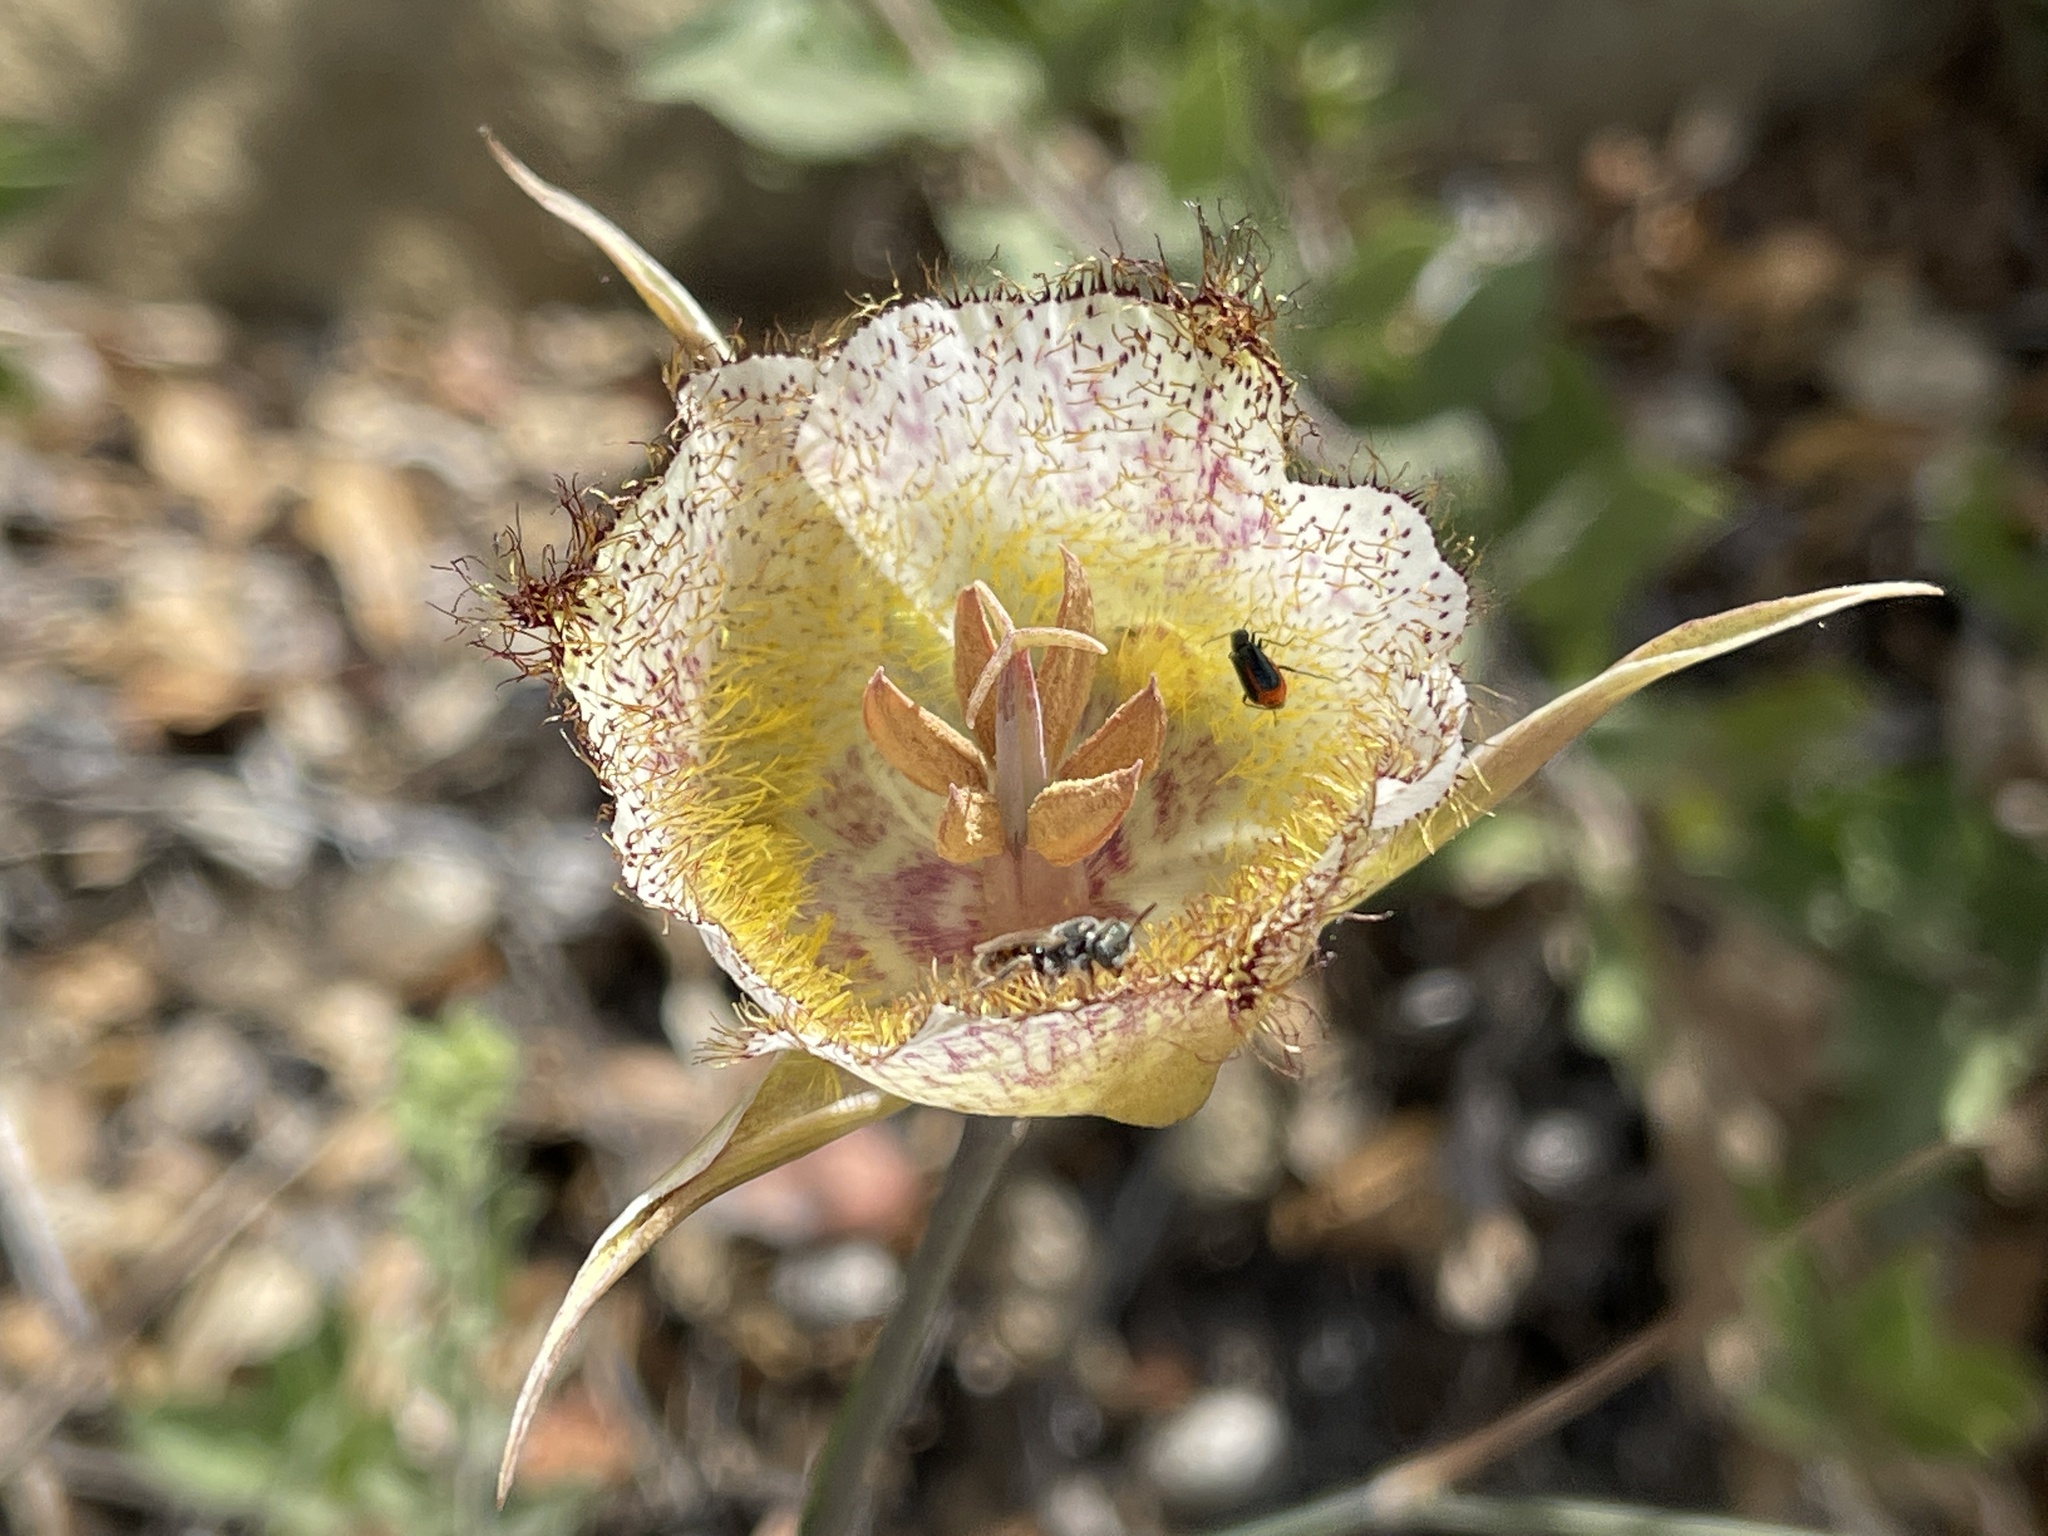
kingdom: Plantae
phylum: Tracheophyta
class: Liliopsida
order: Liliales
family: Liliaceae
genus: Calochortus
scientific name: Calochortus fimbriatus
